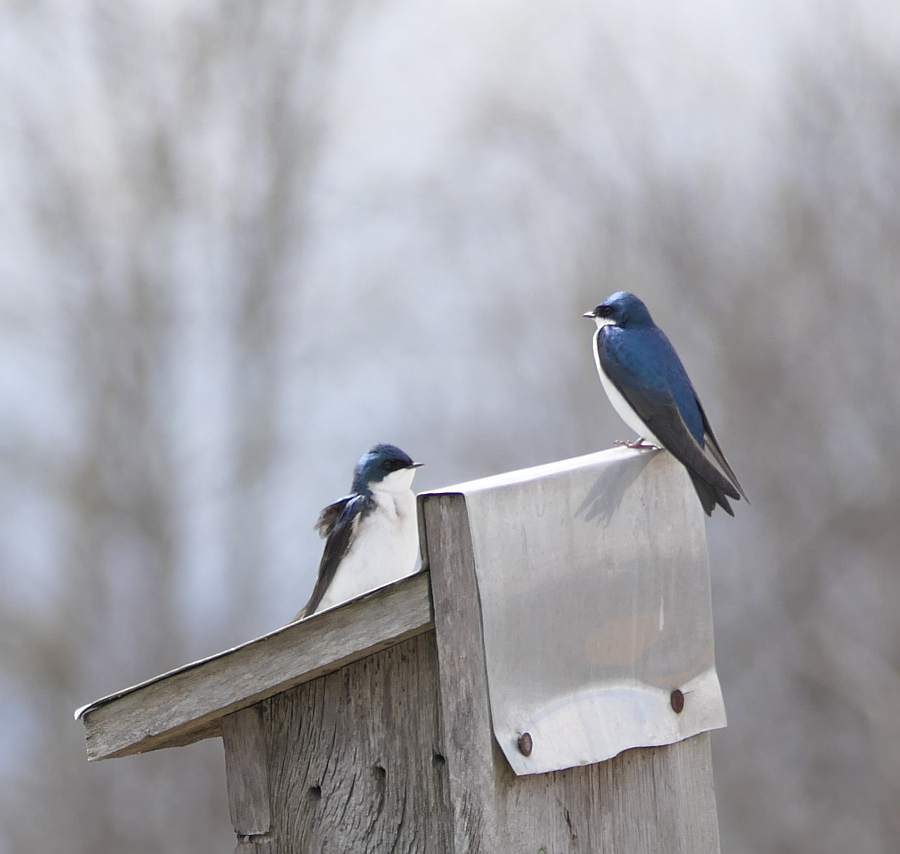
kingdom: Animalia
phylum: Chordata
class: Aves
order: Passeriformes
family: Hirundinidae
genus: Tachycineta
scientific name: Tachycineta bicolor
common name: Tree swallow
